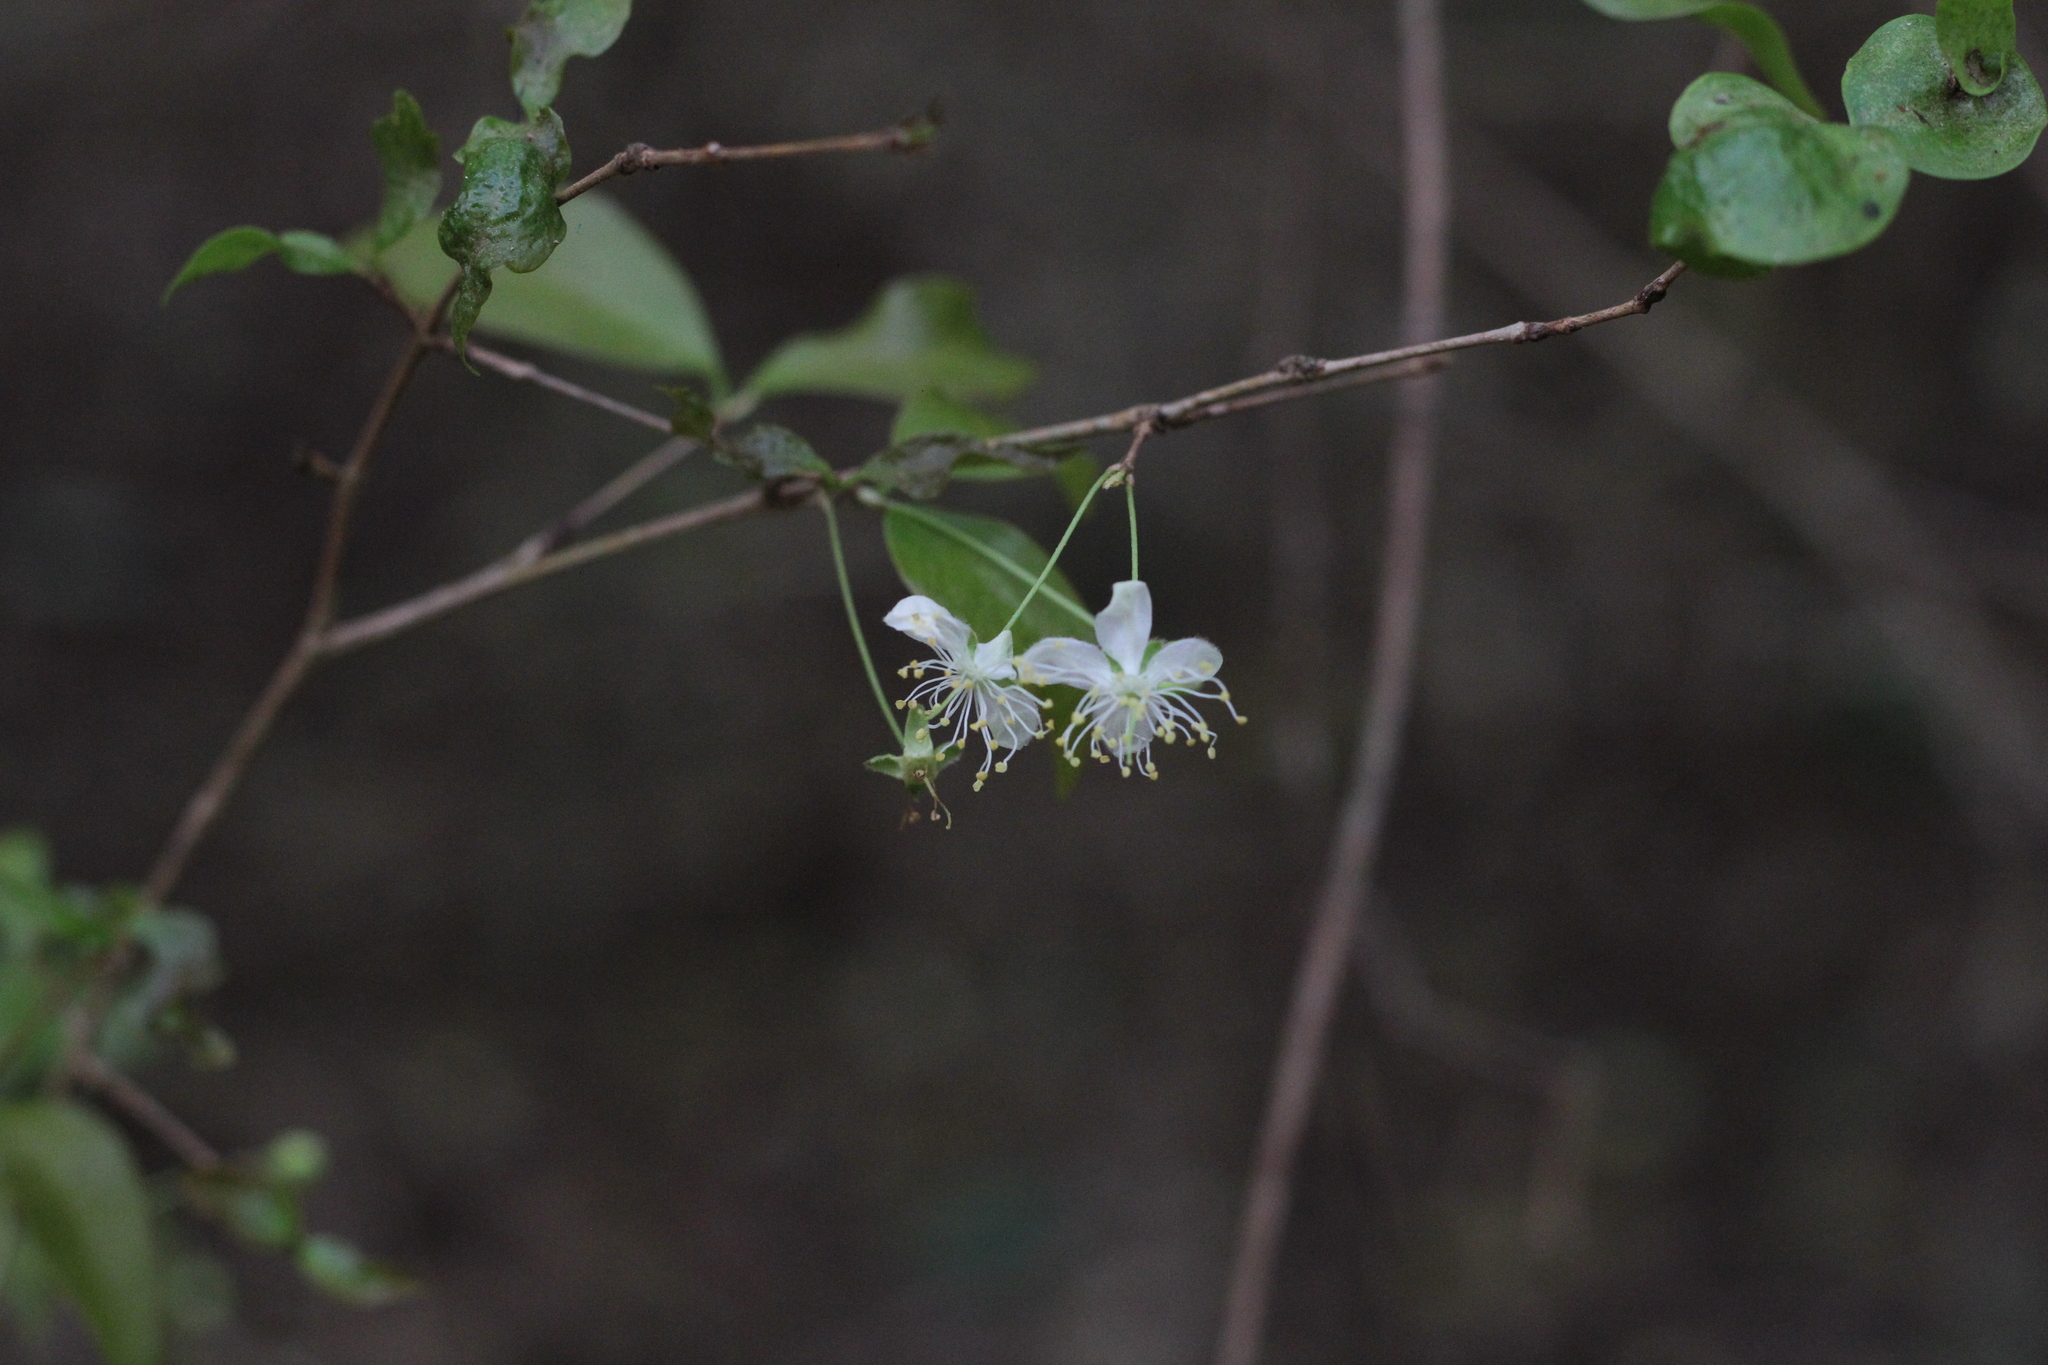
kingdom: Plantae
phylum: Tracheophyta
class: Magnoliopsida
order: Myrtales
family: Myrtaceae
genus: Eugenia
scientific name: Eugenia uniflora
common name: Surinam cherry
